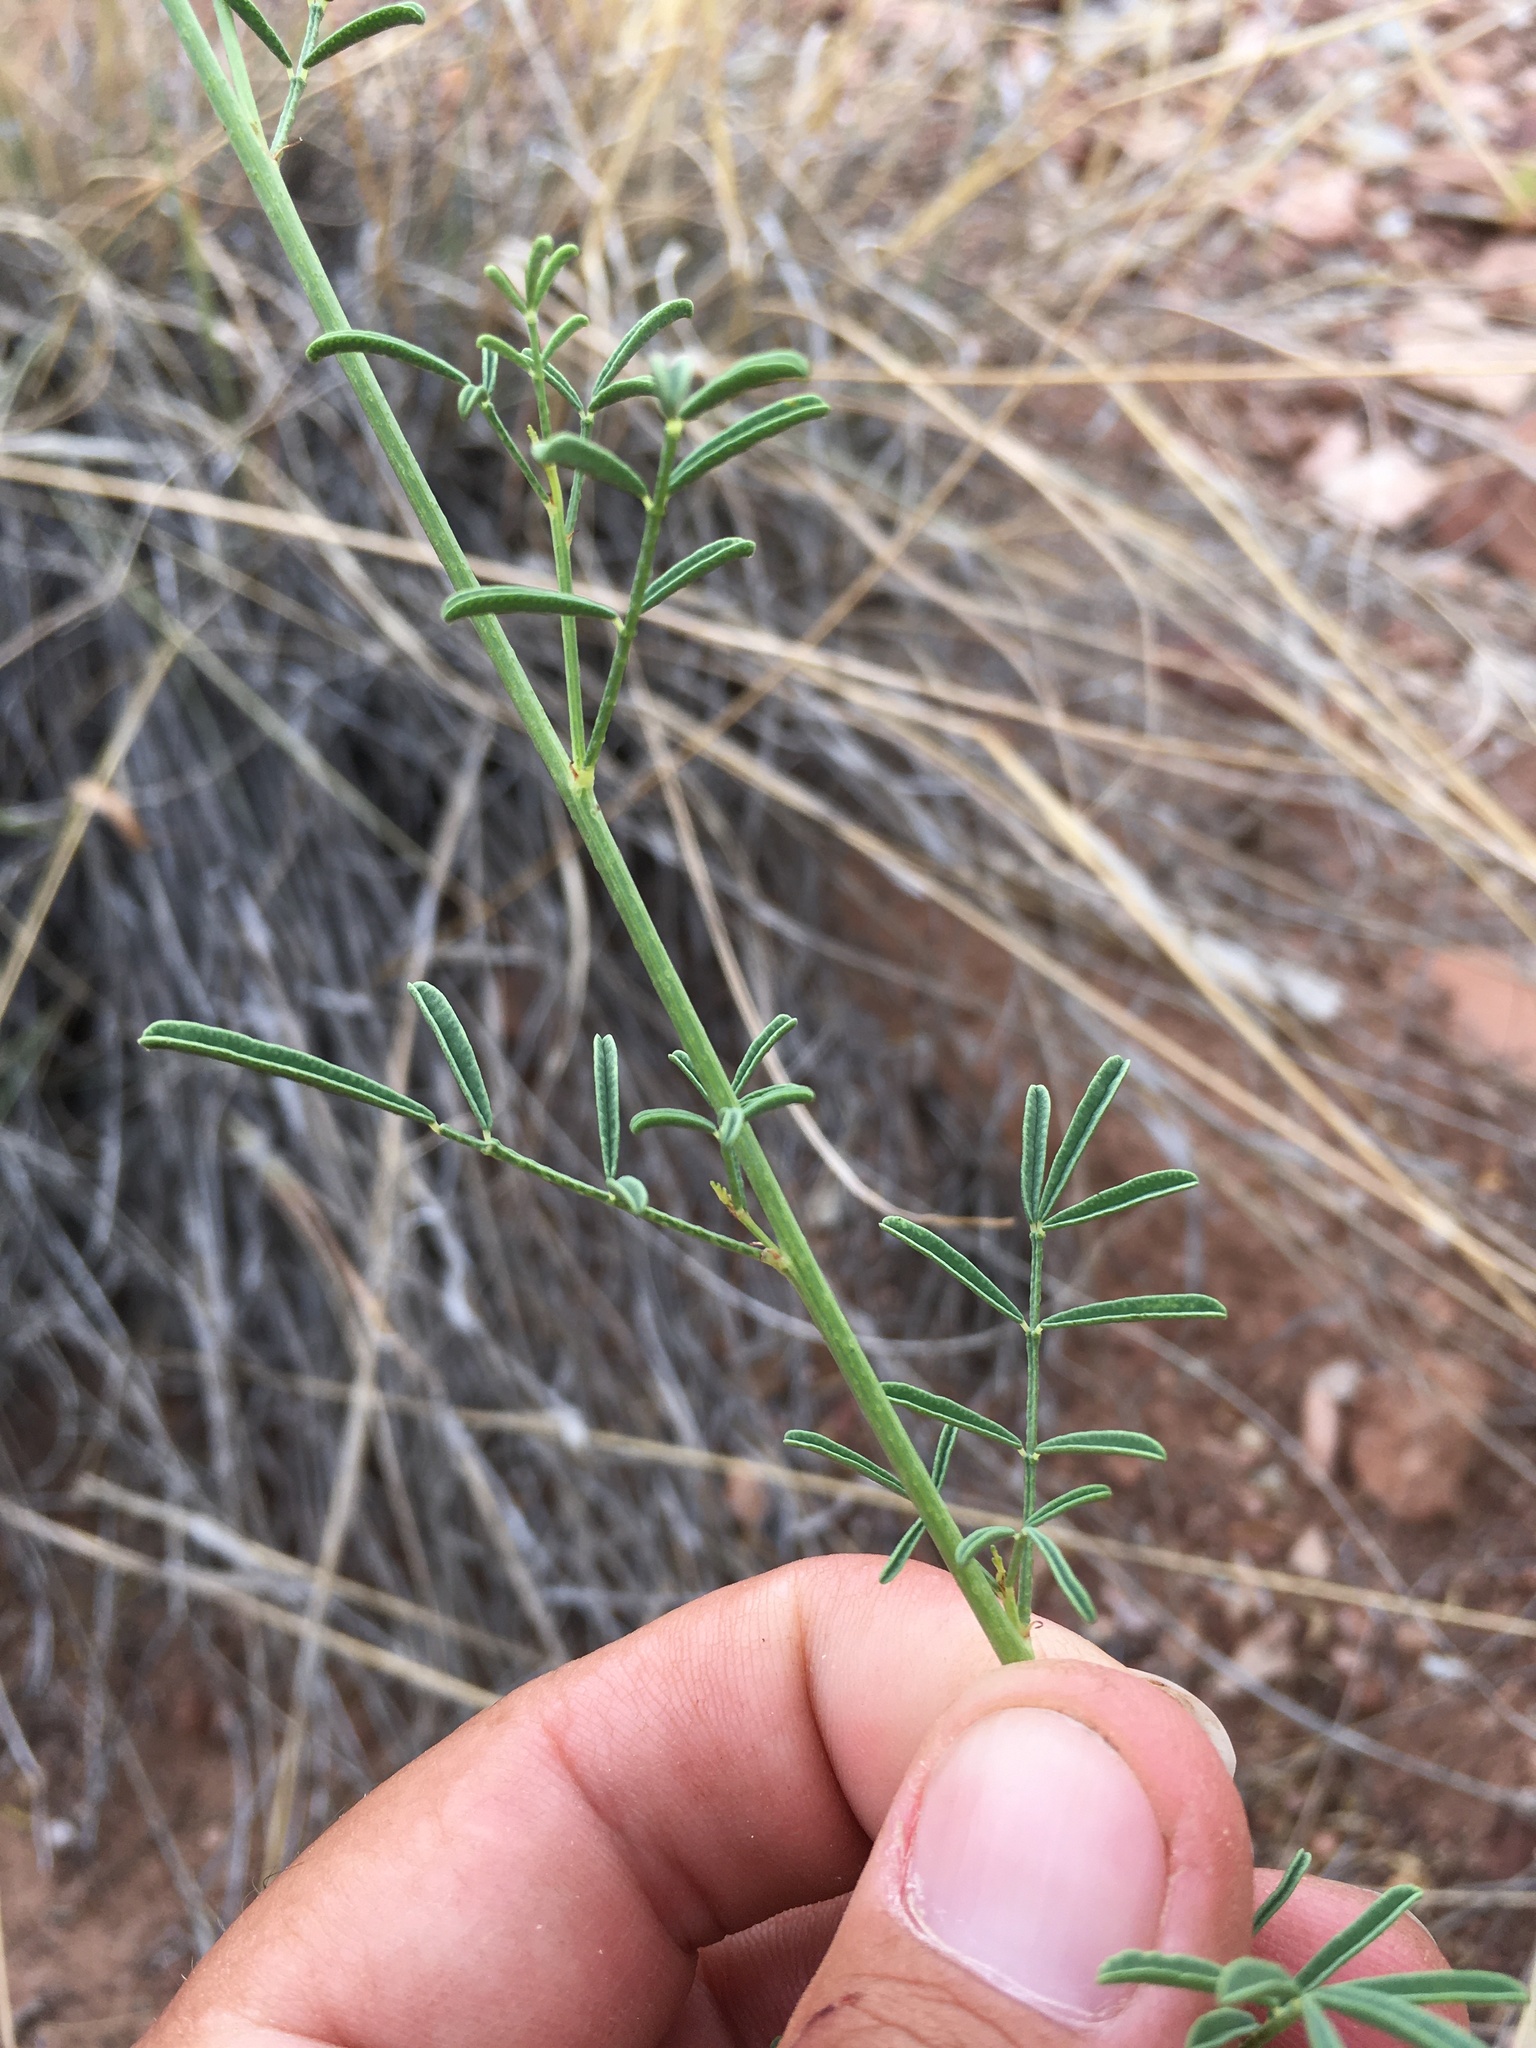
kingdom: Plantae
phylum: Tracheophyta
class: Magnoliopsida
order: Fabales
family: Fabaceae
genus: Dalea
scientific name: Dalea candida
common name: White prairie-clover
